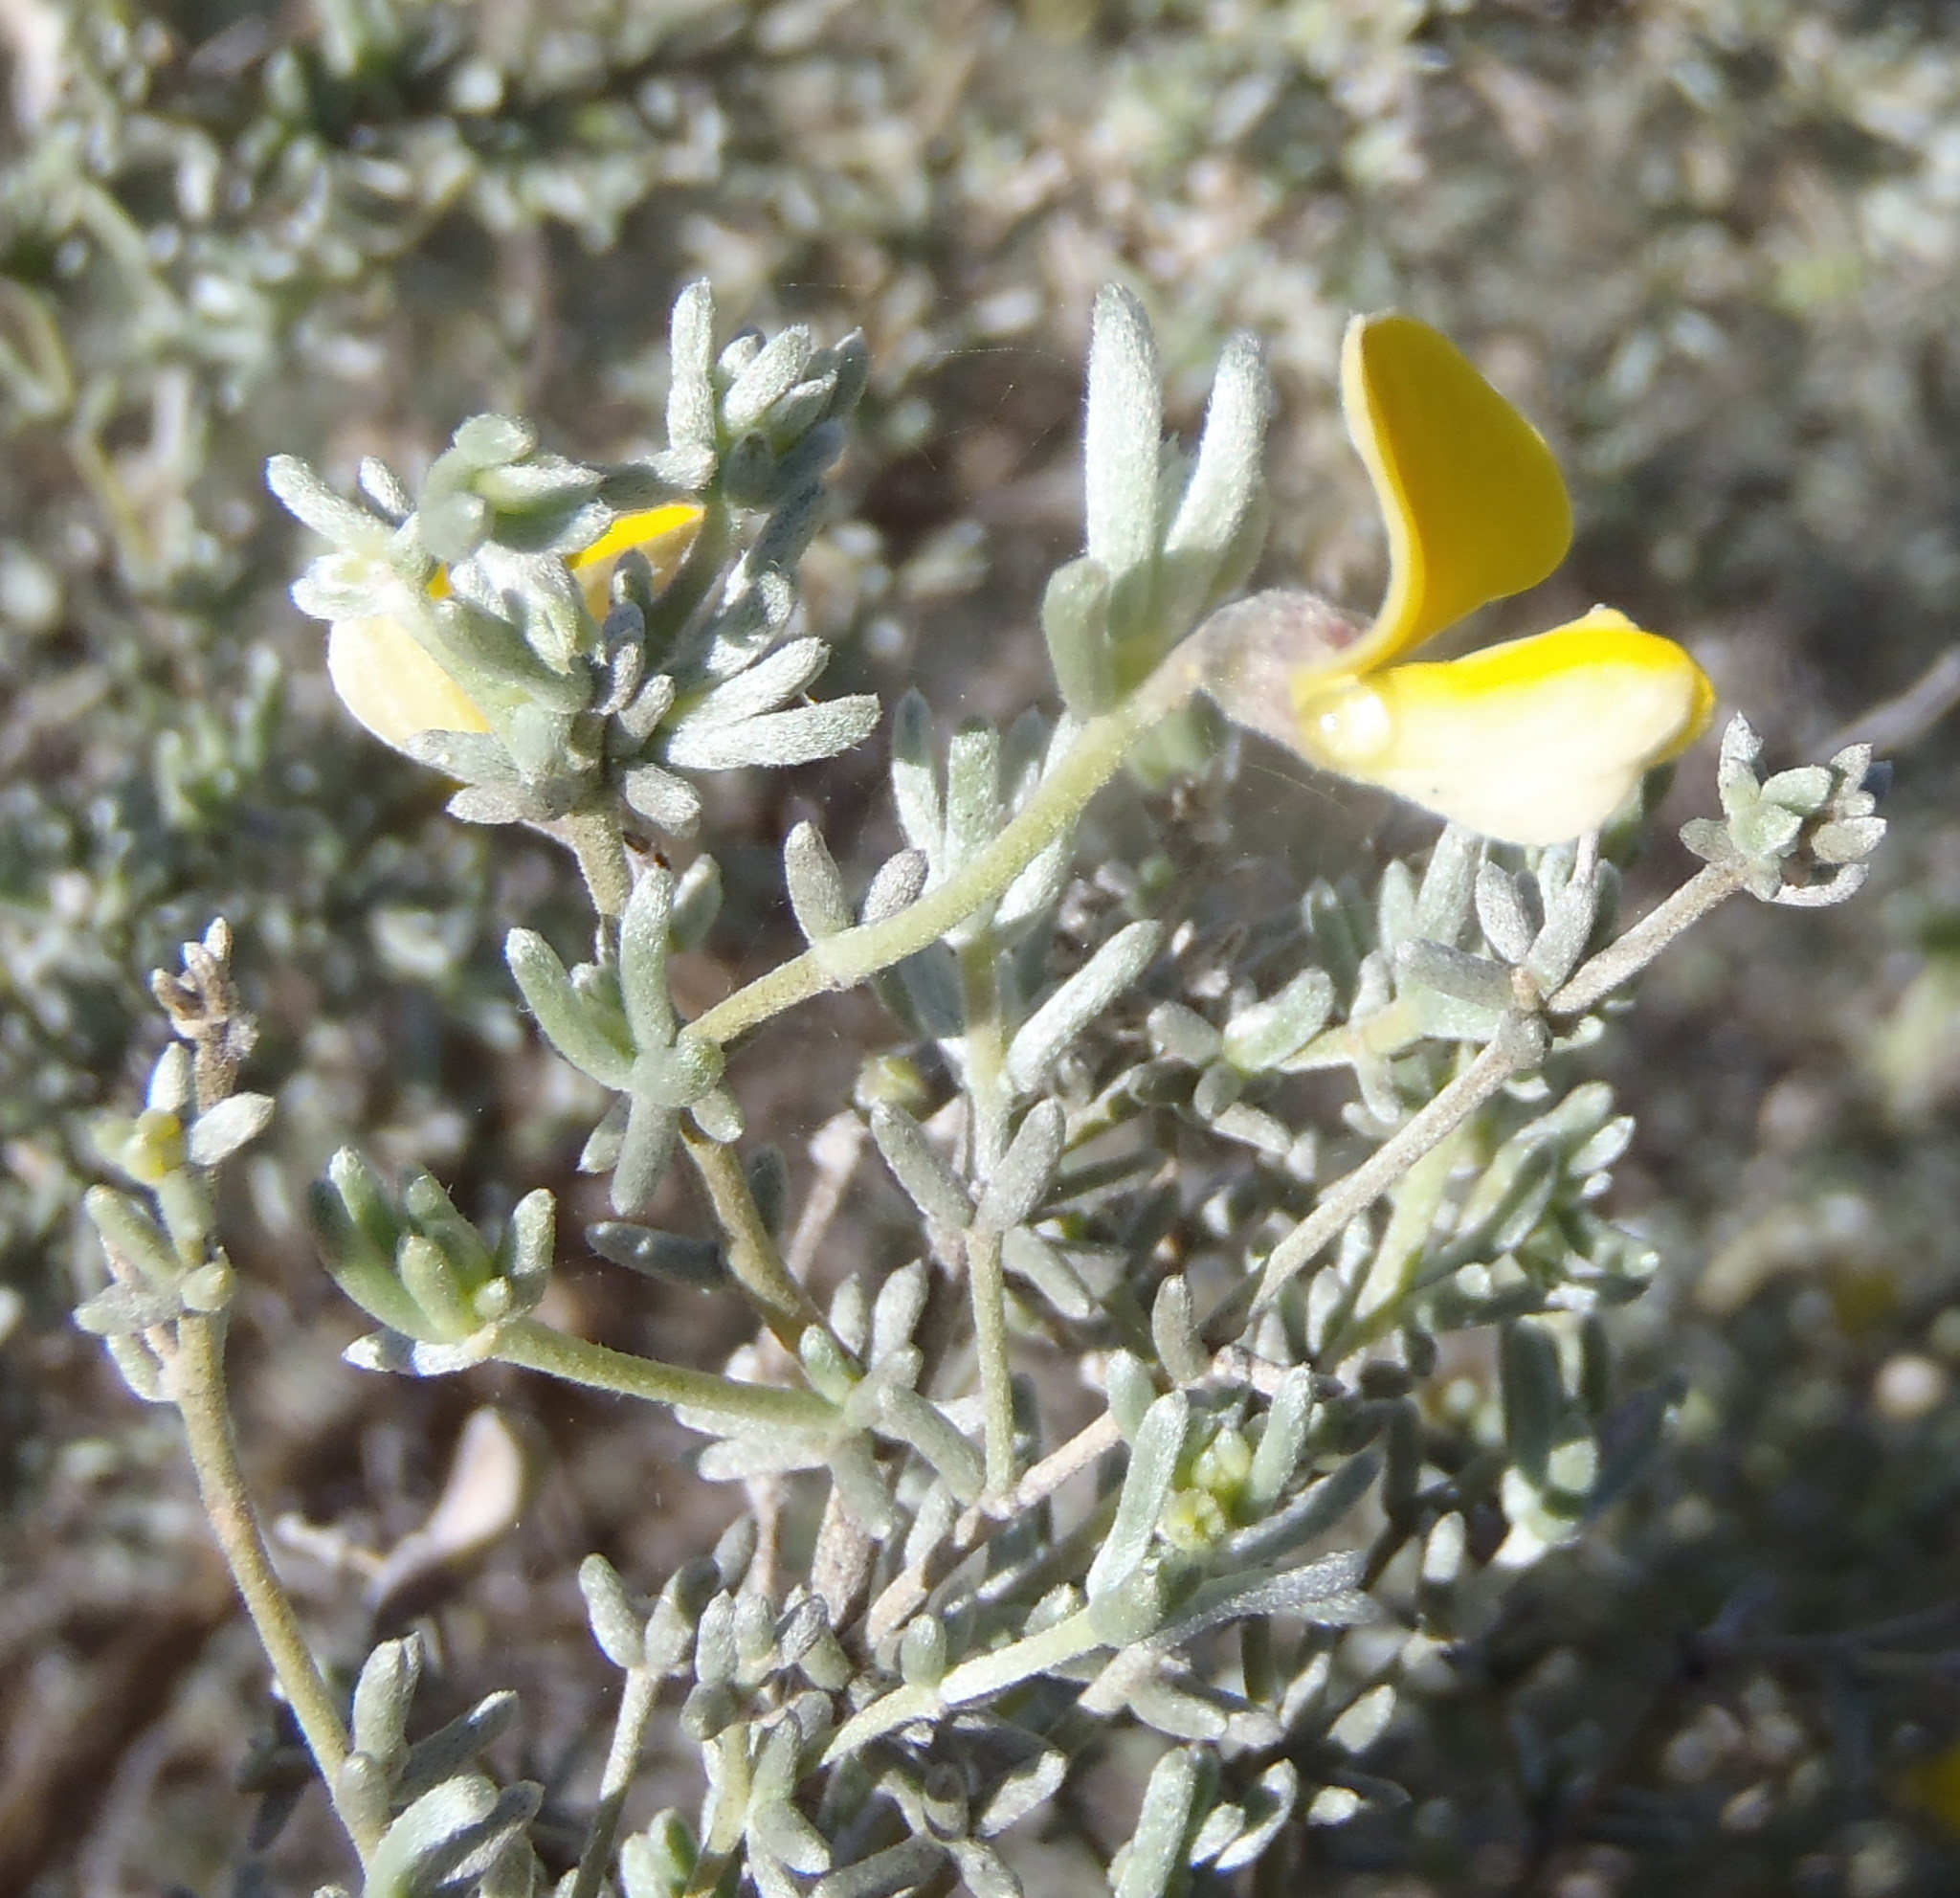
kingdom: Plantae
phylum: Tracheophyta
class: Magnoliopsida
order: Fabales
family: Fabaceae
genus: Aspalathus
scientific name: Aspalathus pedunculata
